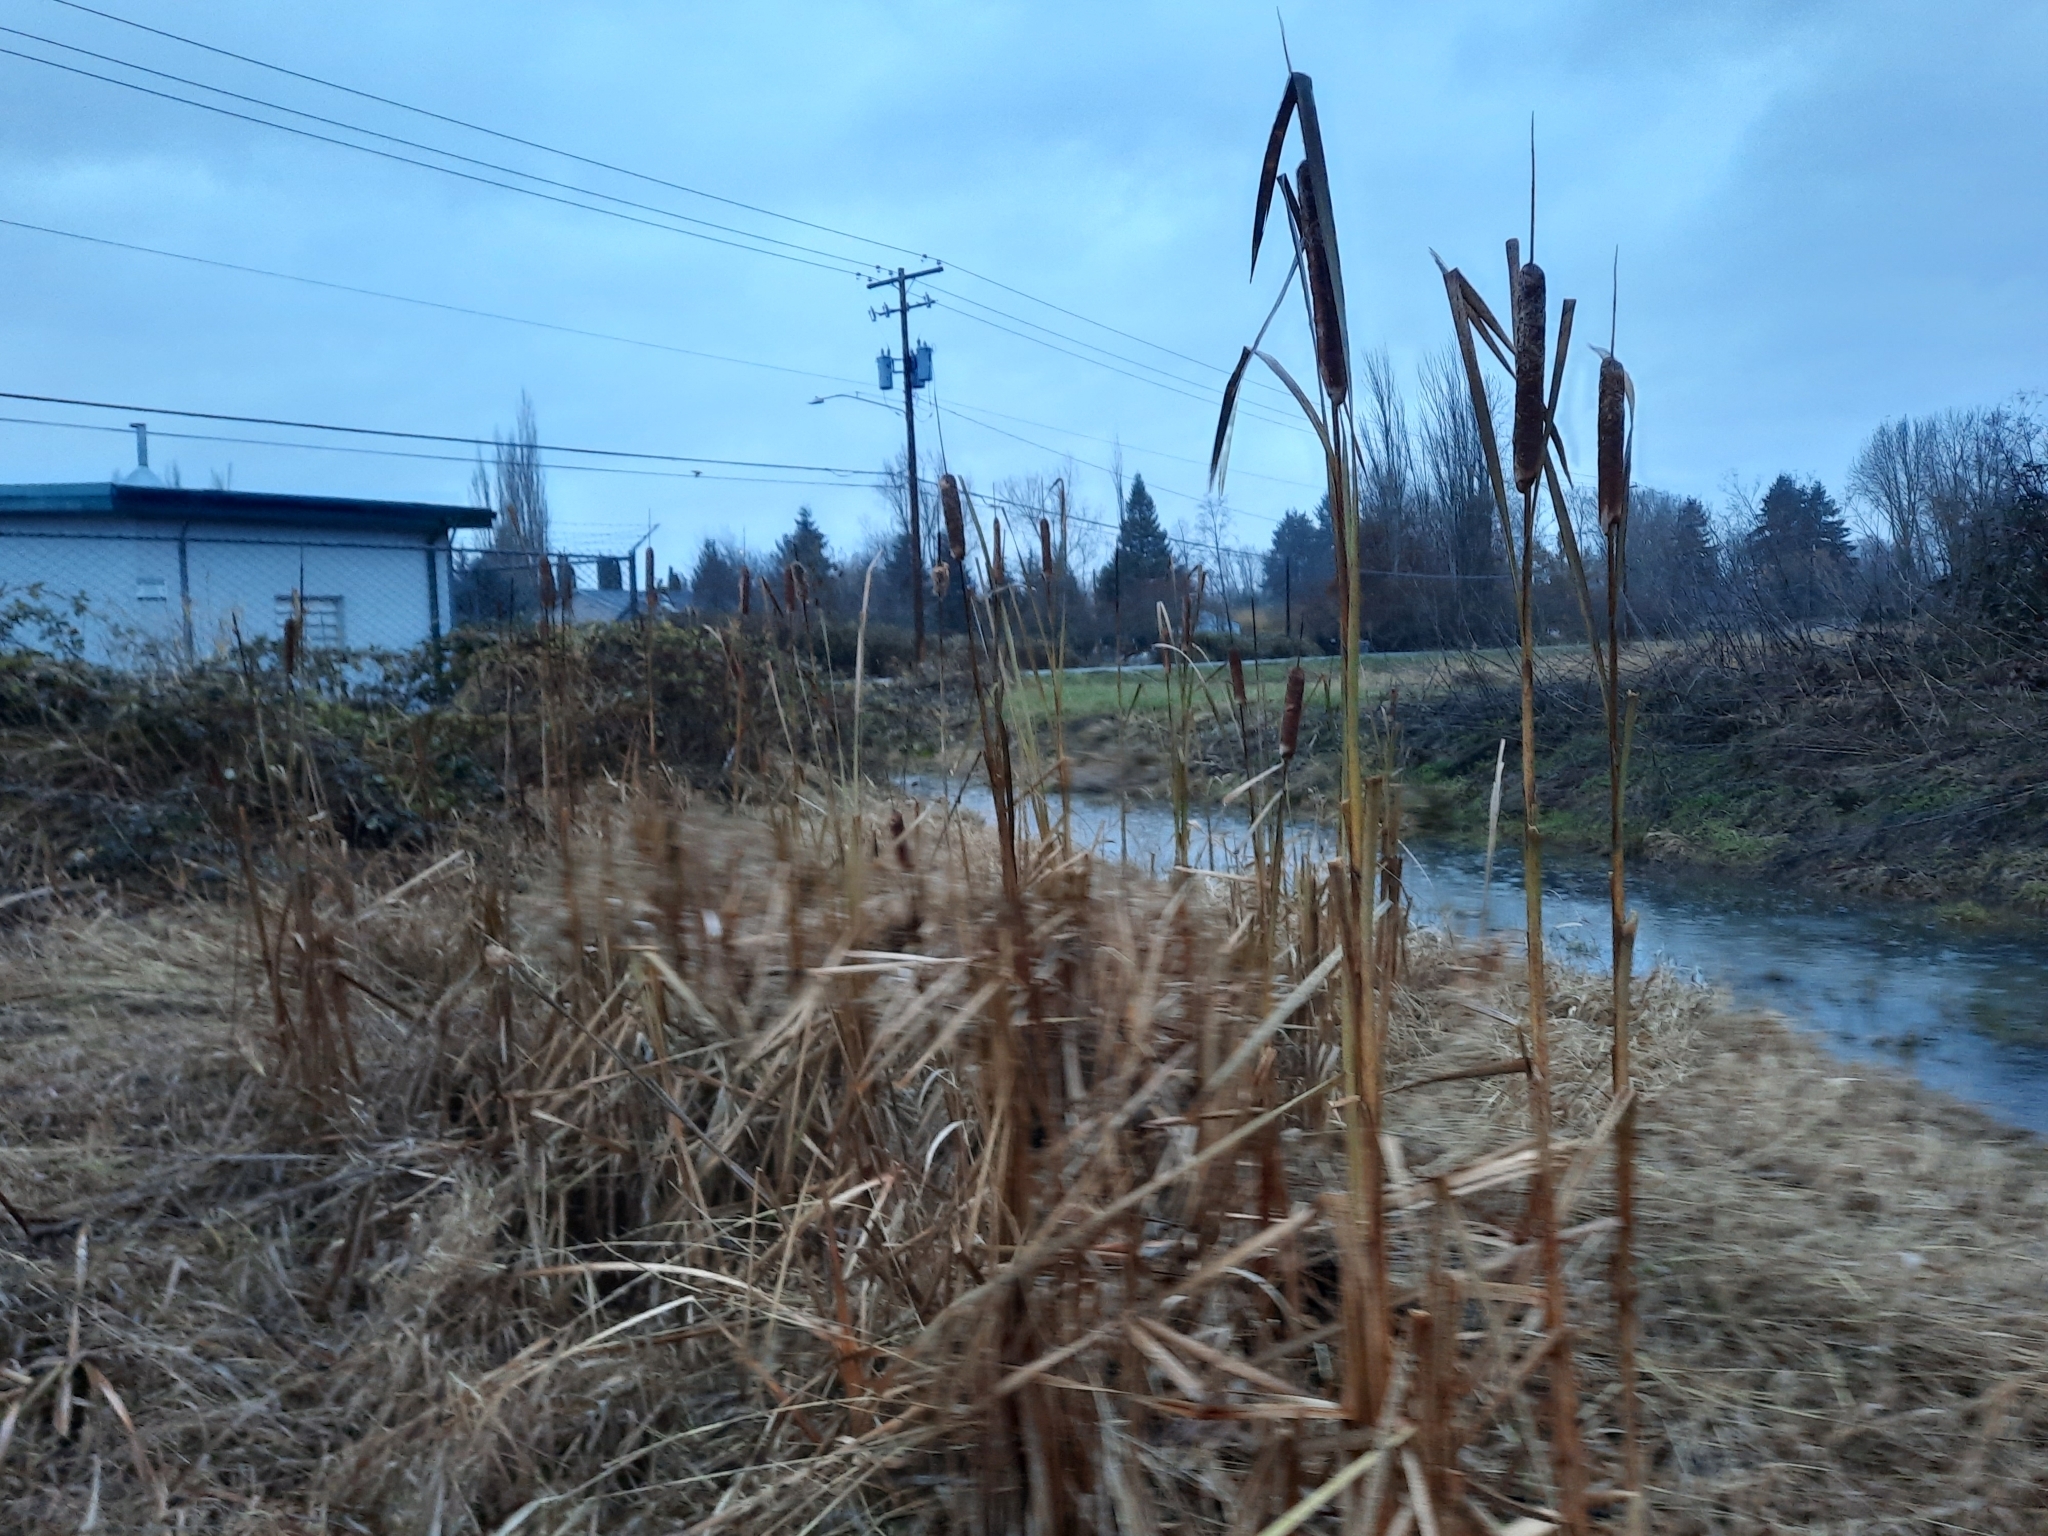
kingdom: Plantae
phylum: Tracheophyta
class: Liliopsida
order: Poales
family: Typhaceae
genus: Typha
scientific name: Typha latifolia
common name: Broadleaf cattail
